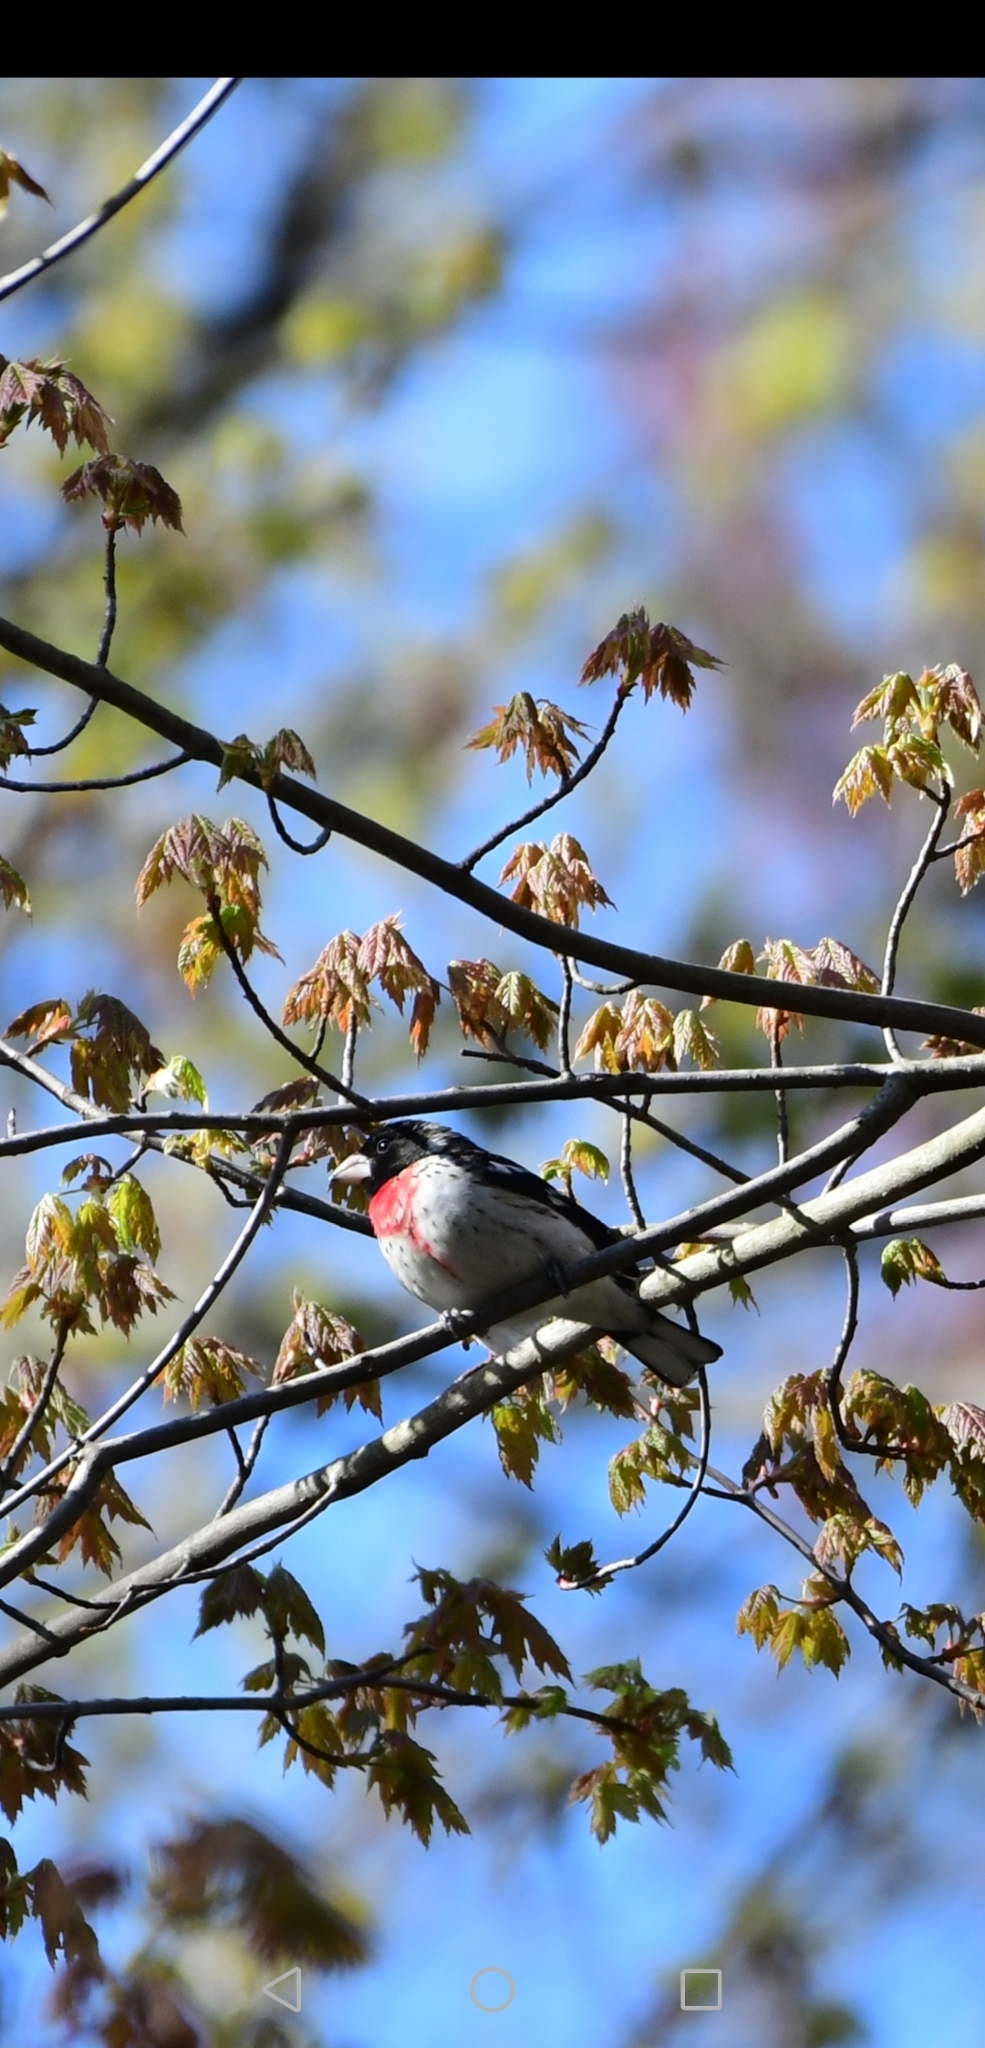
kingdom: Animalia
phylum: Chordata
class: Aves
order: Passeriformes
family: Cardinalidae
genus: Pheucticus
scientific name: Pheucticus ludovicianus
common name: Rose-breasted grosbeak
